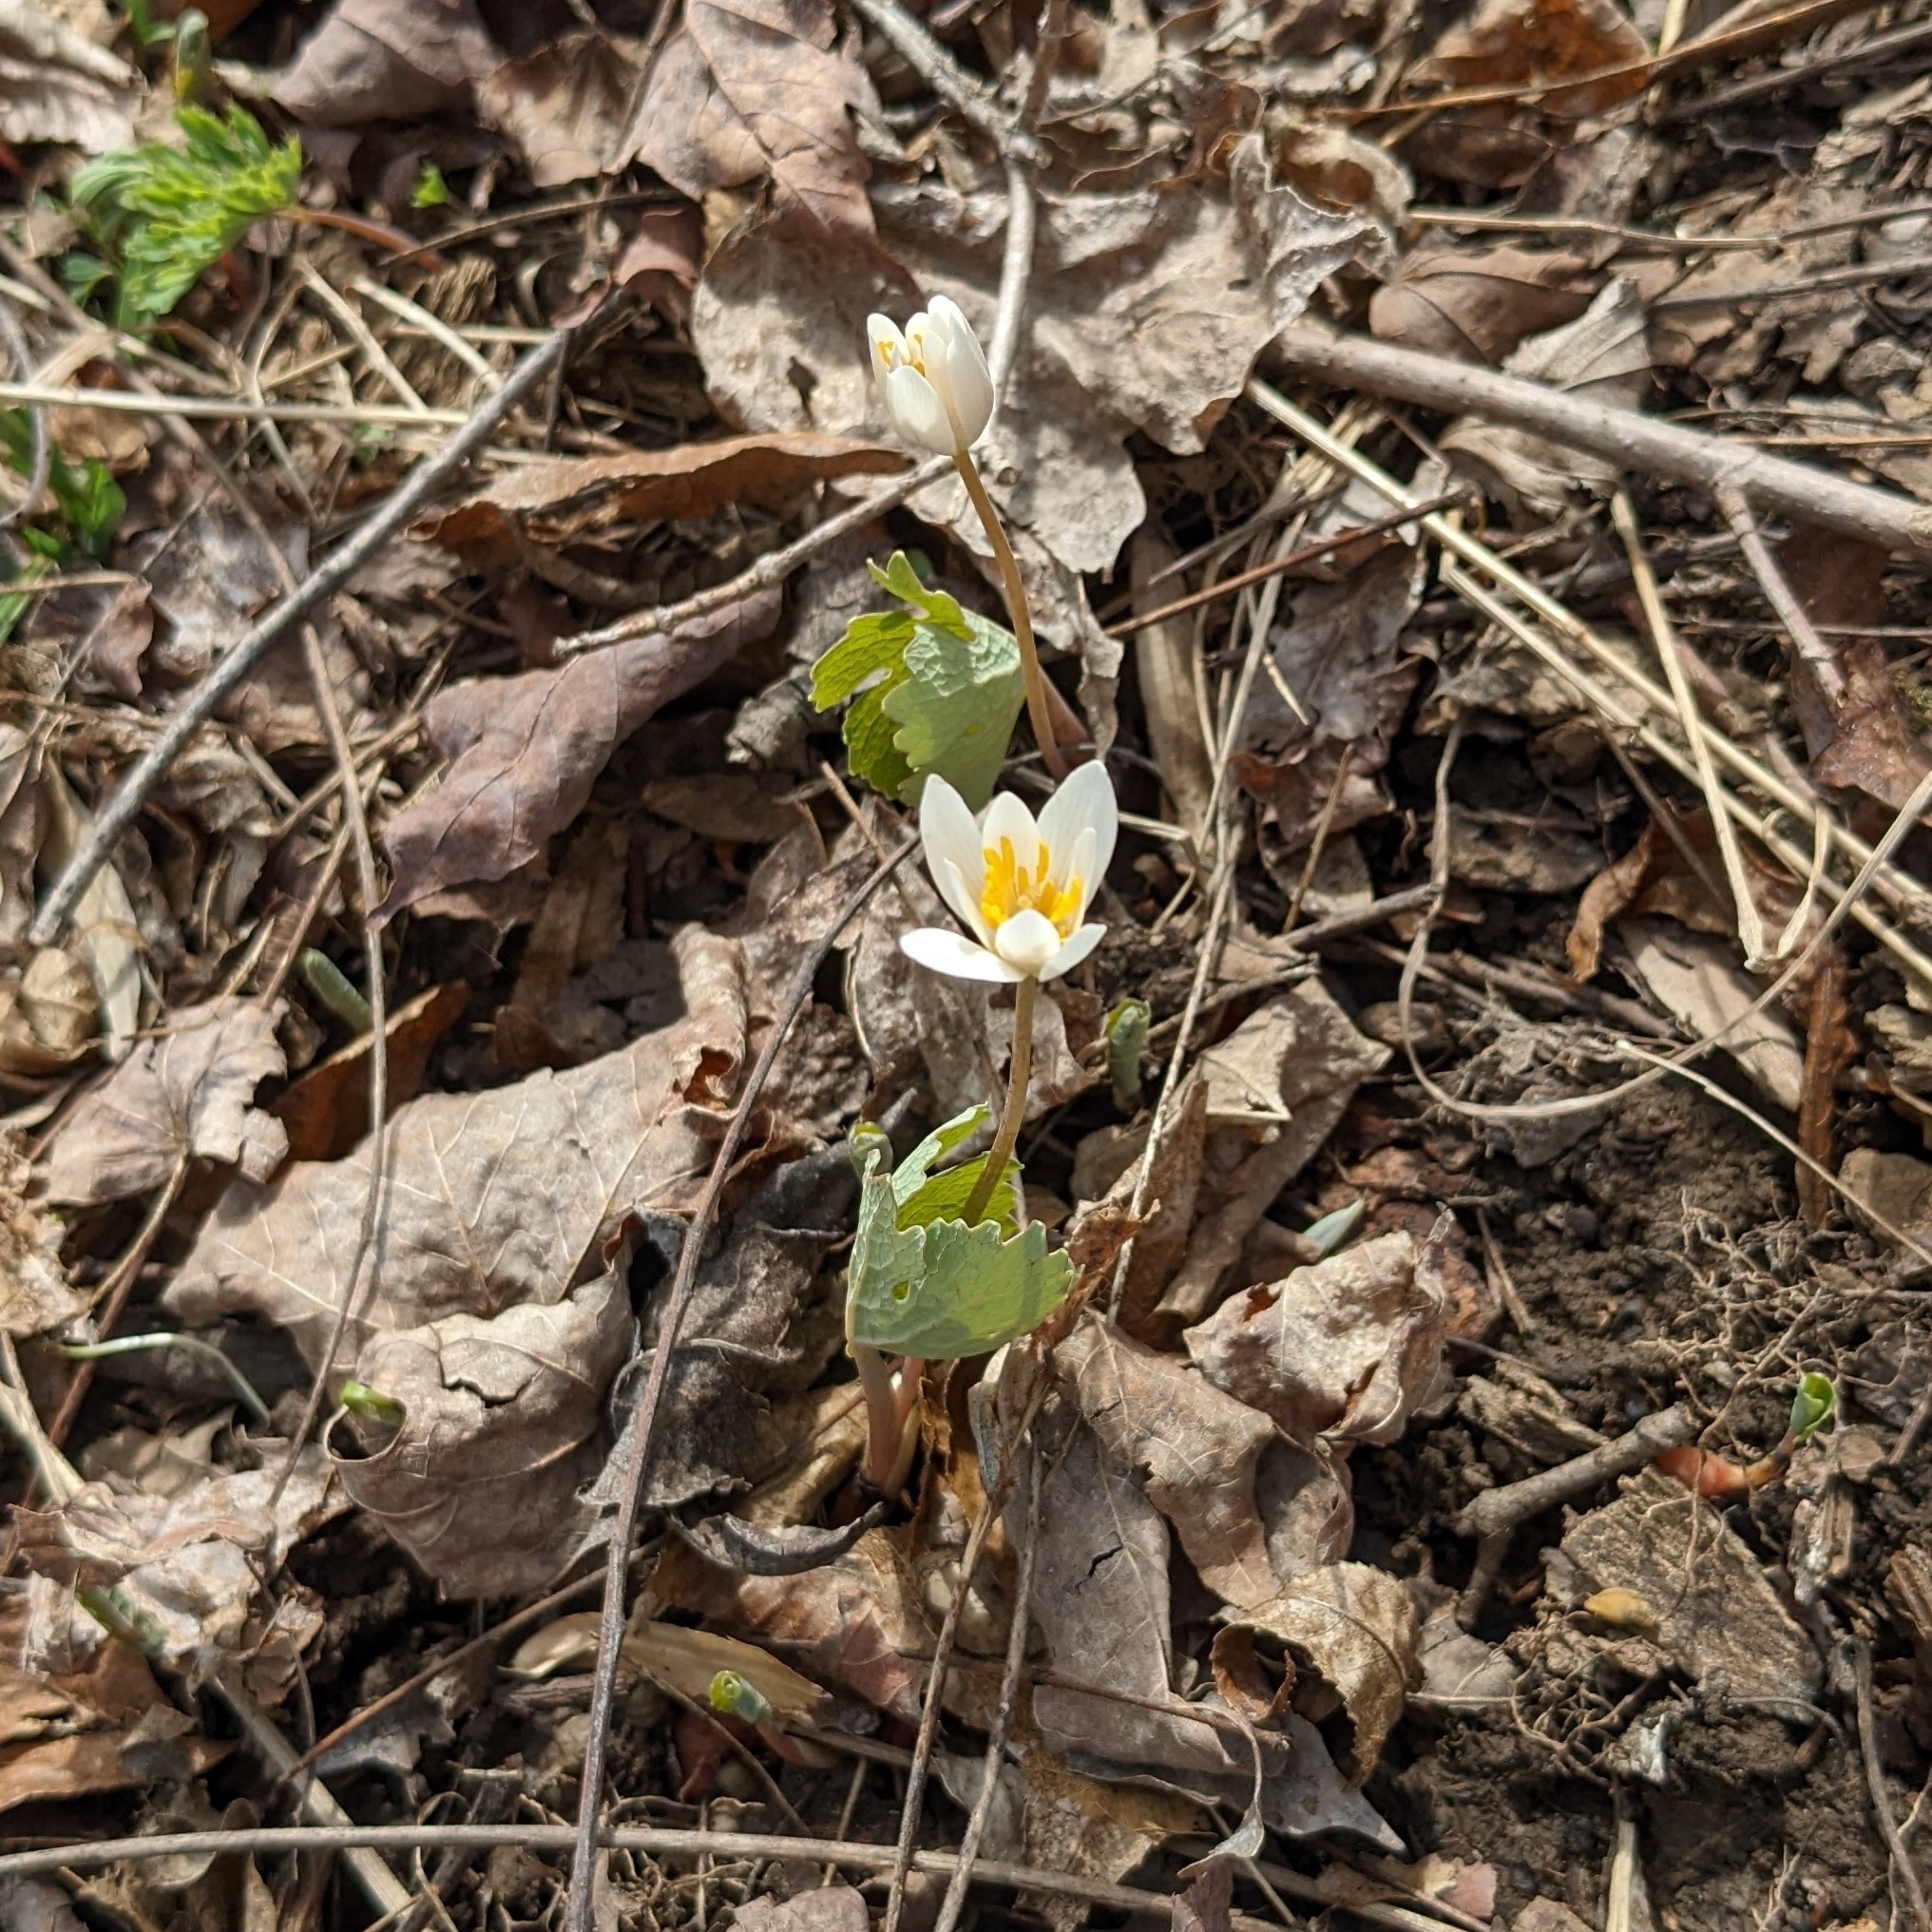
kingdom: Plantae
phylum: Tracheophyta
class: Magnoliopsida
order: Ranunculales
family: Papaveraceae
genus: Sanguinaria
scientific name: Sanguinaria canadensis
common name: Bloodroot
